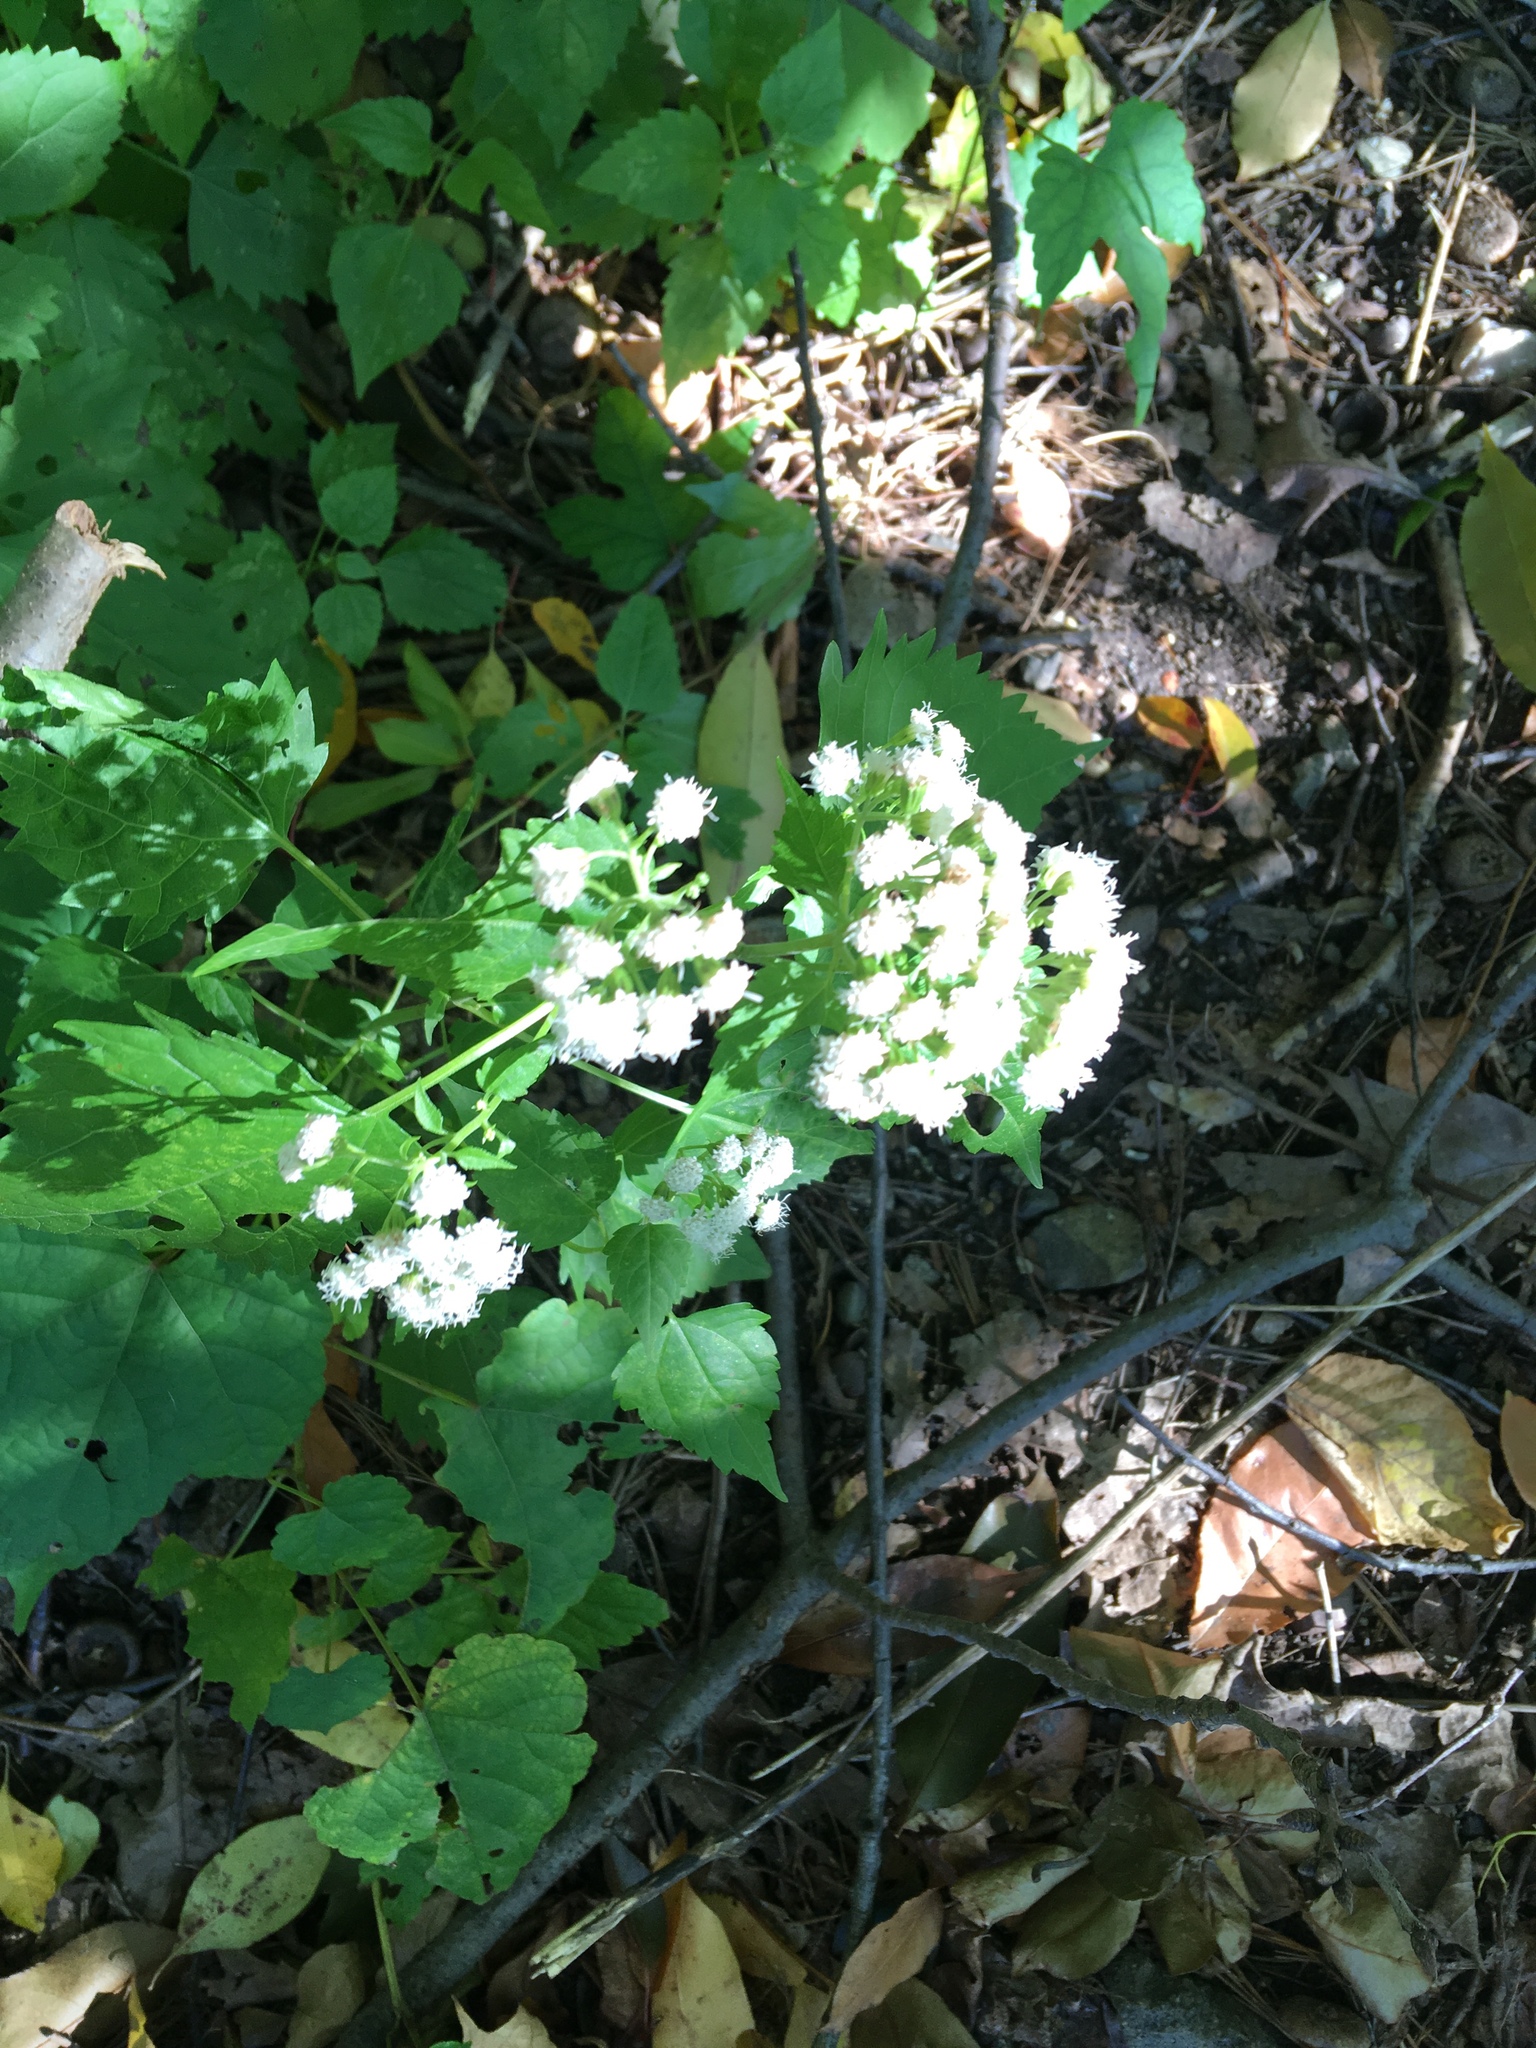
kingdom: Plantae
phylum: Tracheophyta
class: Magnoliopsida
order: Asterales
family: Asteraceae
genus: Ageratina
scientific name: Ageratina altissima
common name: White snakeroot
